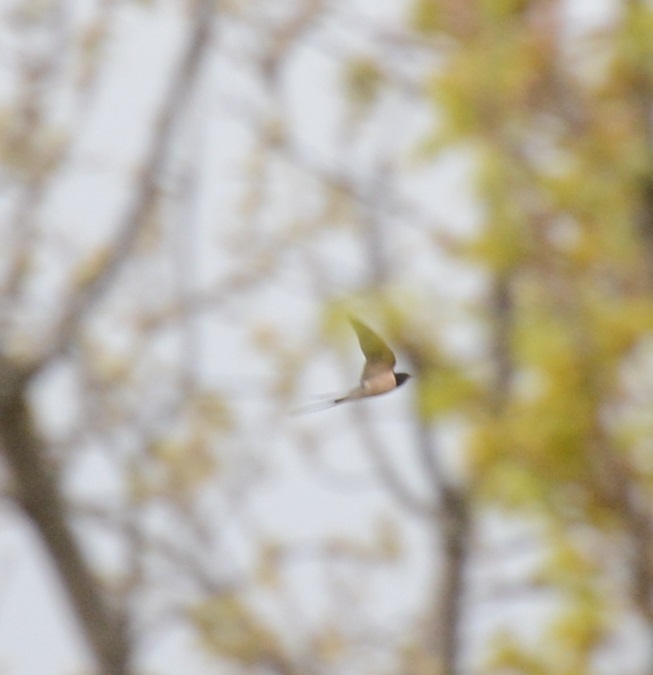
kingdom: Animalia
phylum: Chordata
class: Aves
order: Passeriformes
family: Hirundinidae
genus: Hirundo
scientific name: Hirundo rustica
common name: Barn swallow
